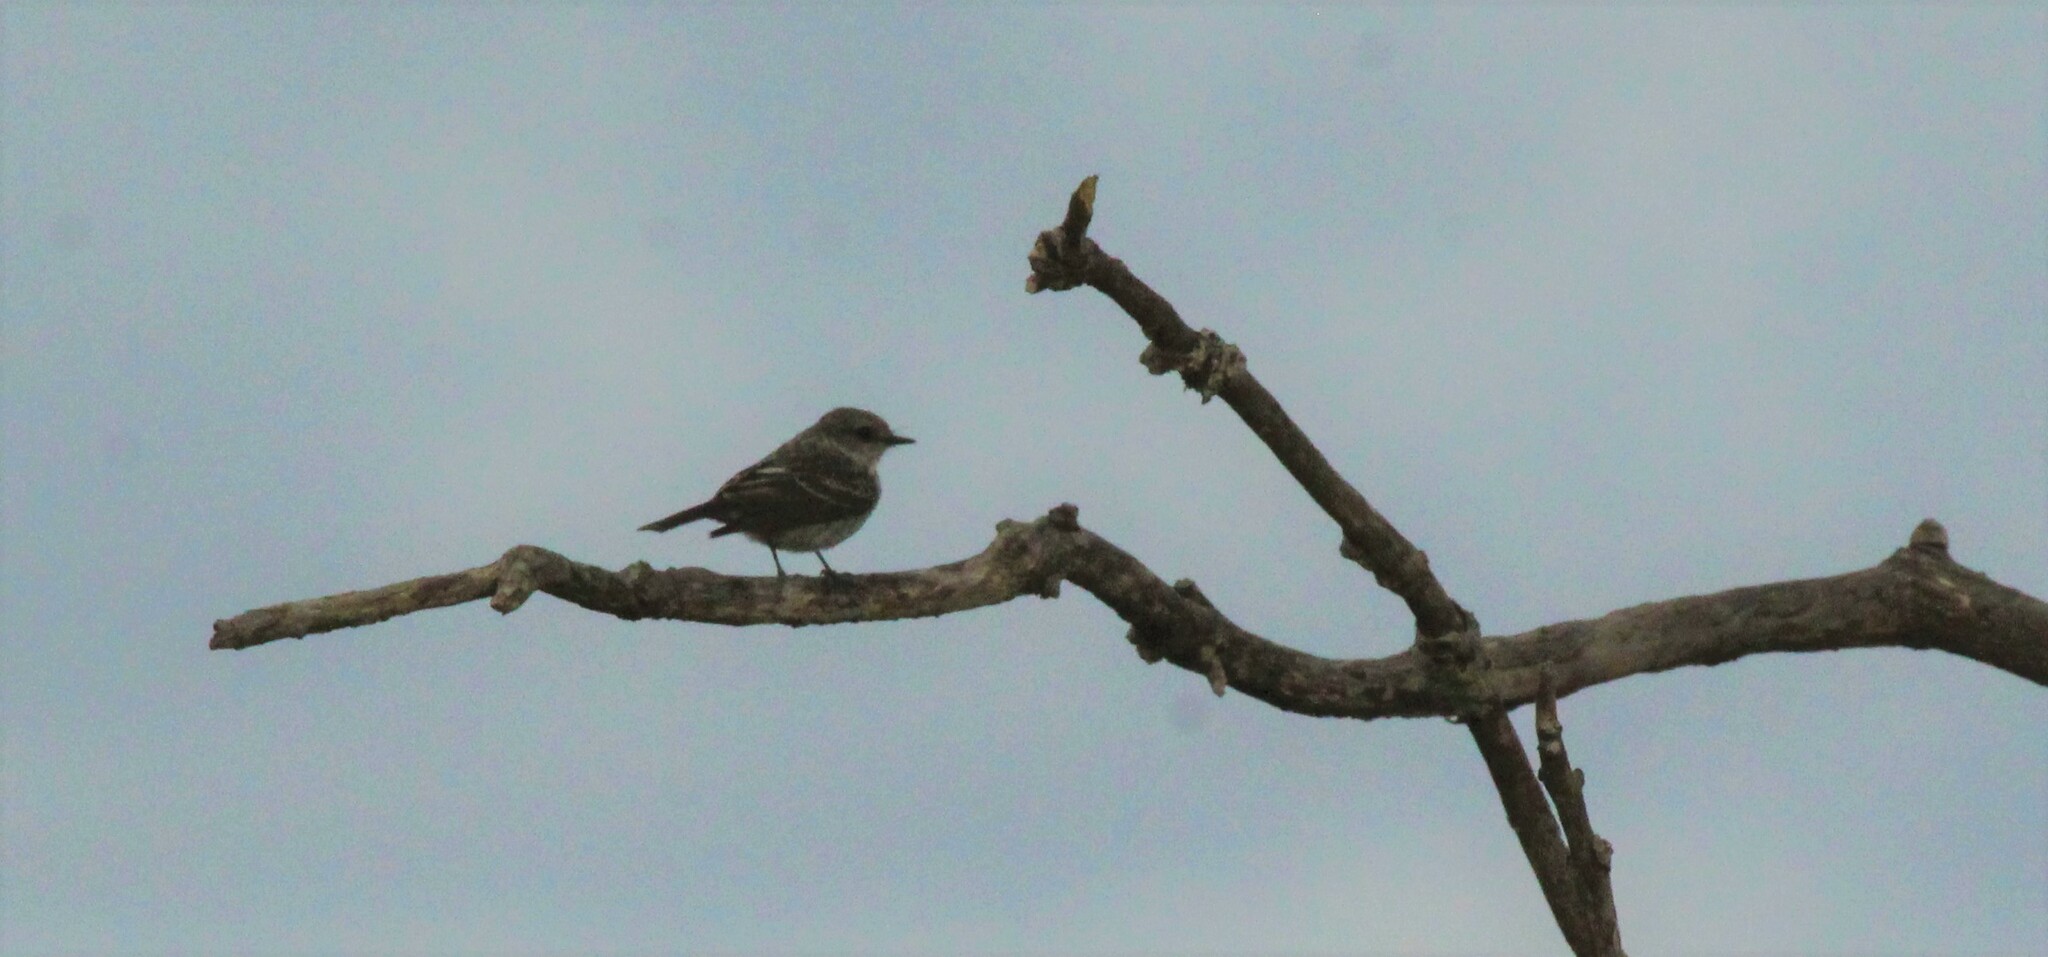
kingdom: Animalia
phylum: Chordata
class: Aves
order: Passeriformes
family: Tyrannidae
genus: Pyrocephalus
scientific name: Pyrocephalus rubinus
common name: Vermilion flycatcher
